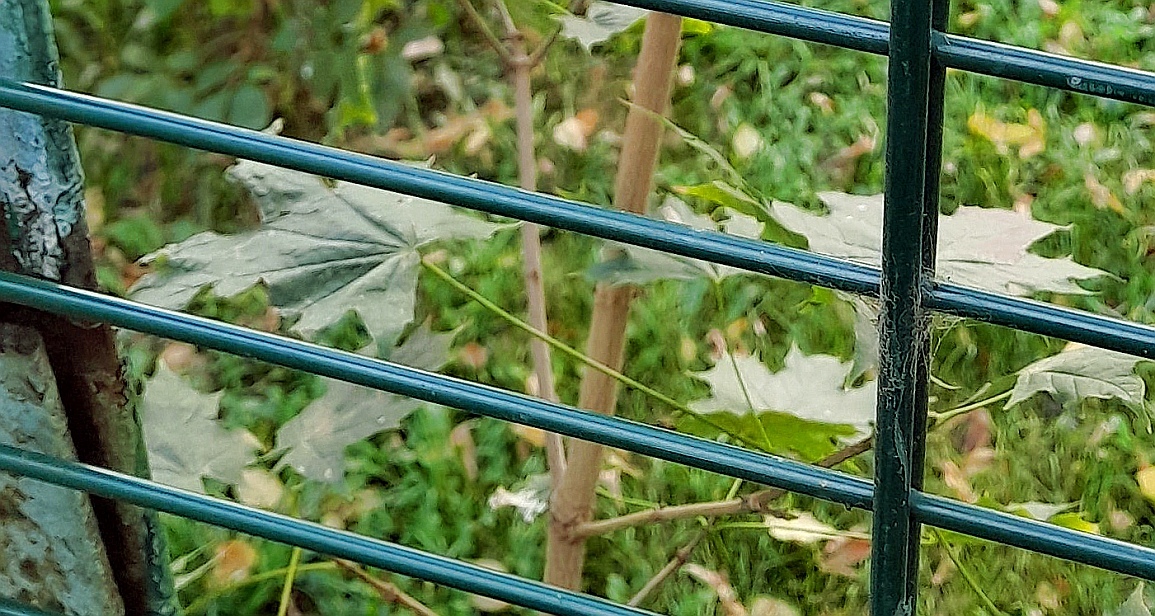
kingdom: Plantae
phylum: Tracheophyta
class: Magnoliopsida
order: Sapindales
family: Sapindaceae
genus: Acer
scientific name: Acer platanoides
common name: Norway maple
